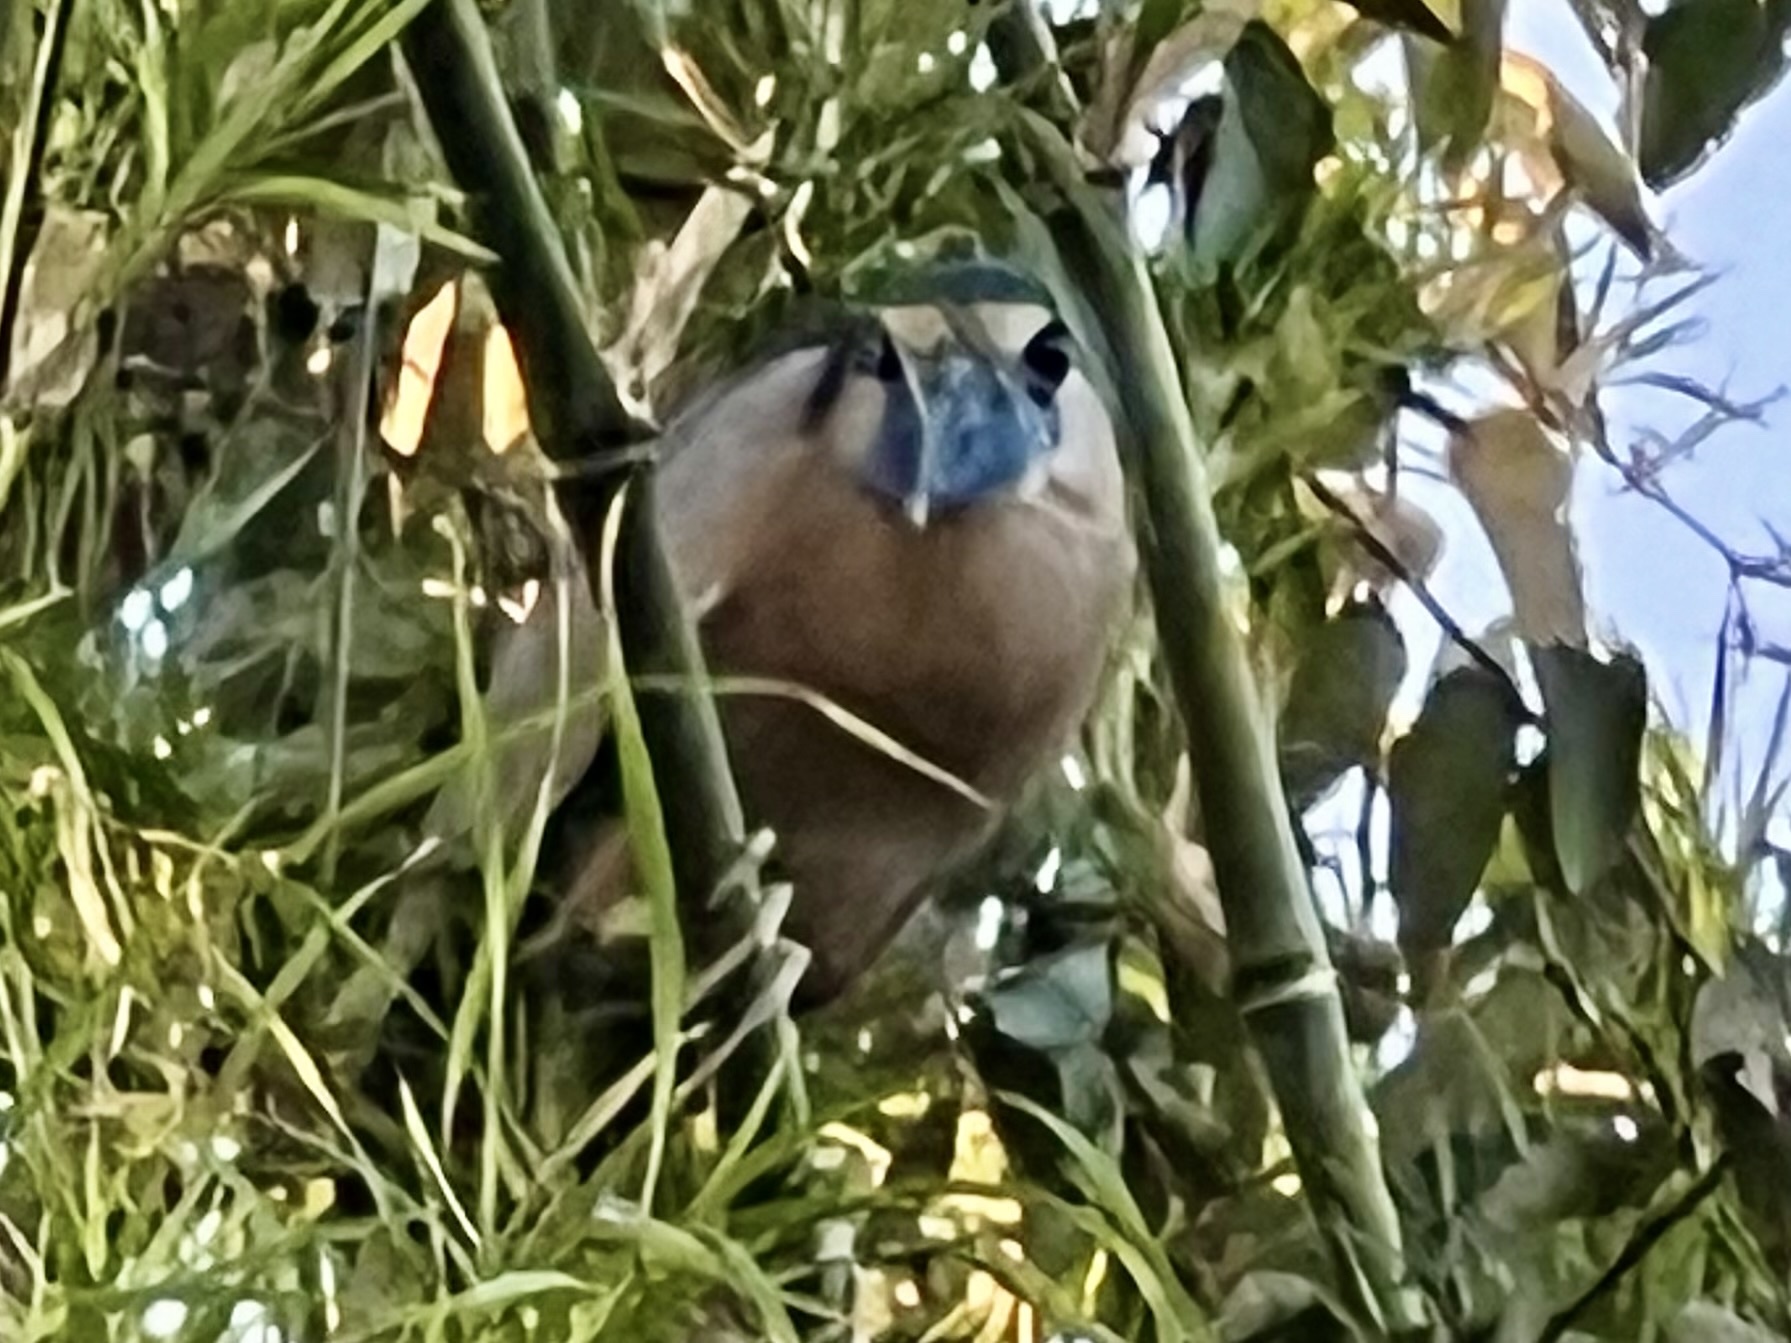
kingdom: Animalia
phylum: Chordata
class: Aves
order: Pelecaniformes
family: Ardeidae
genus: Cochlearius
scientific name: Cochlearius cochlearius
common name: Boat-billed heron
